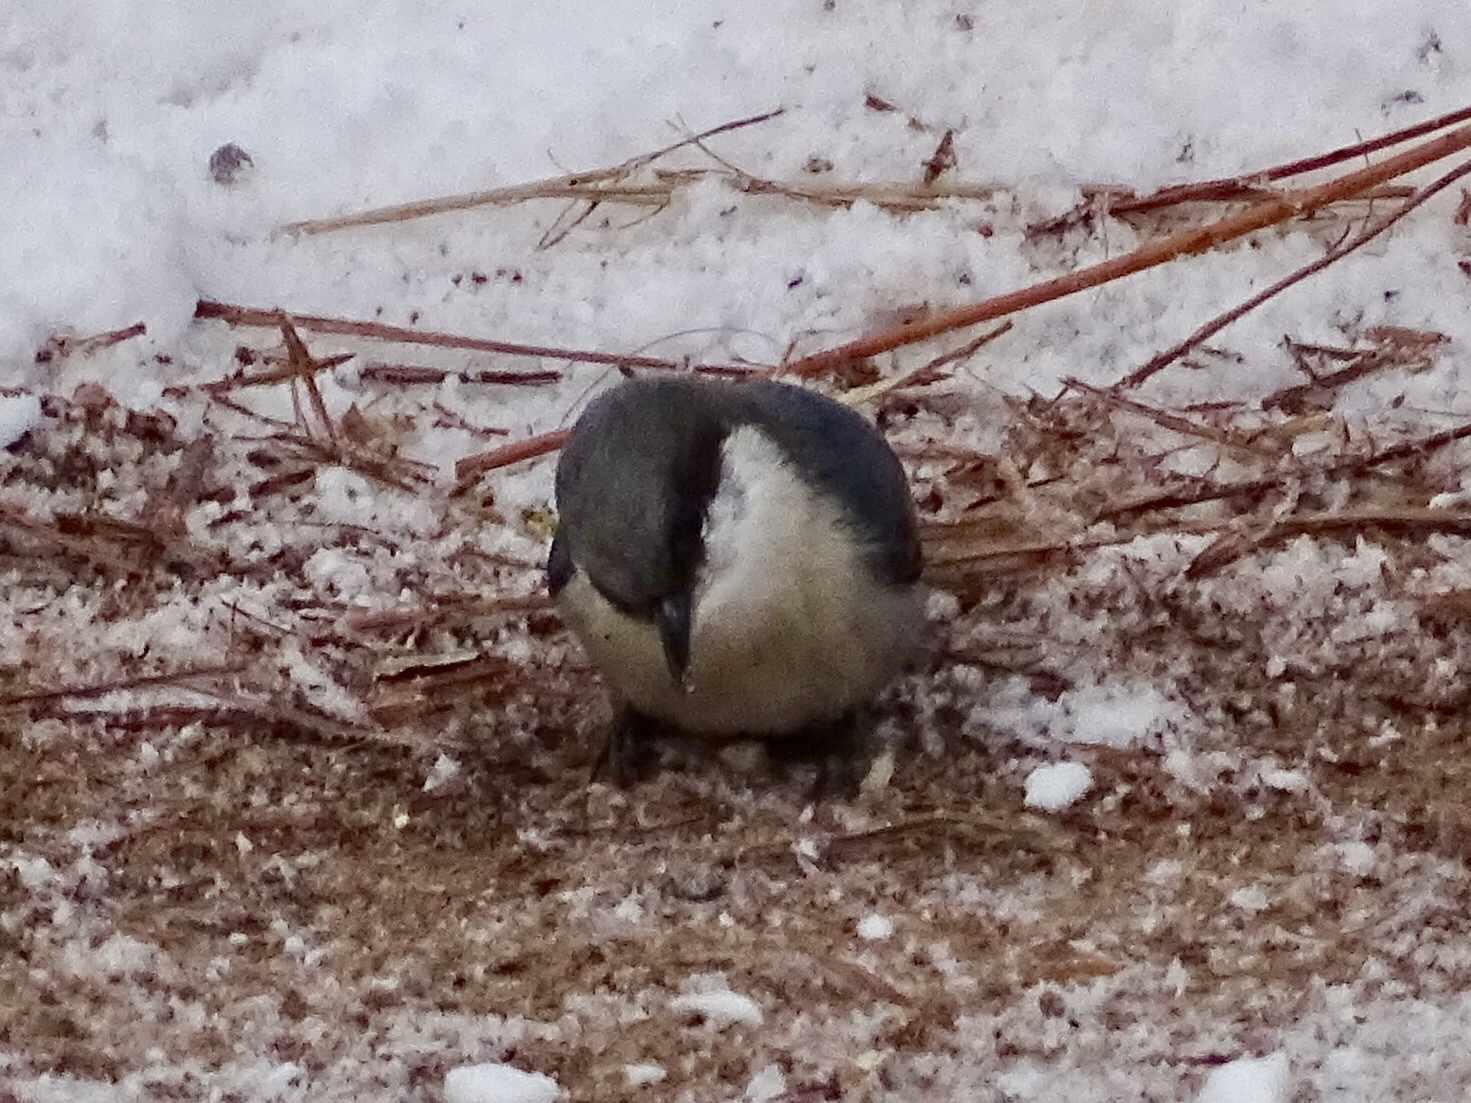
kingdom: Animalia
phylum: Chordata
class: Aves
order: Passeriformes
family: Sittidae
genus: Sitta
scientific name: Sitta pygmaea
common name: Pygmy nuthatch
